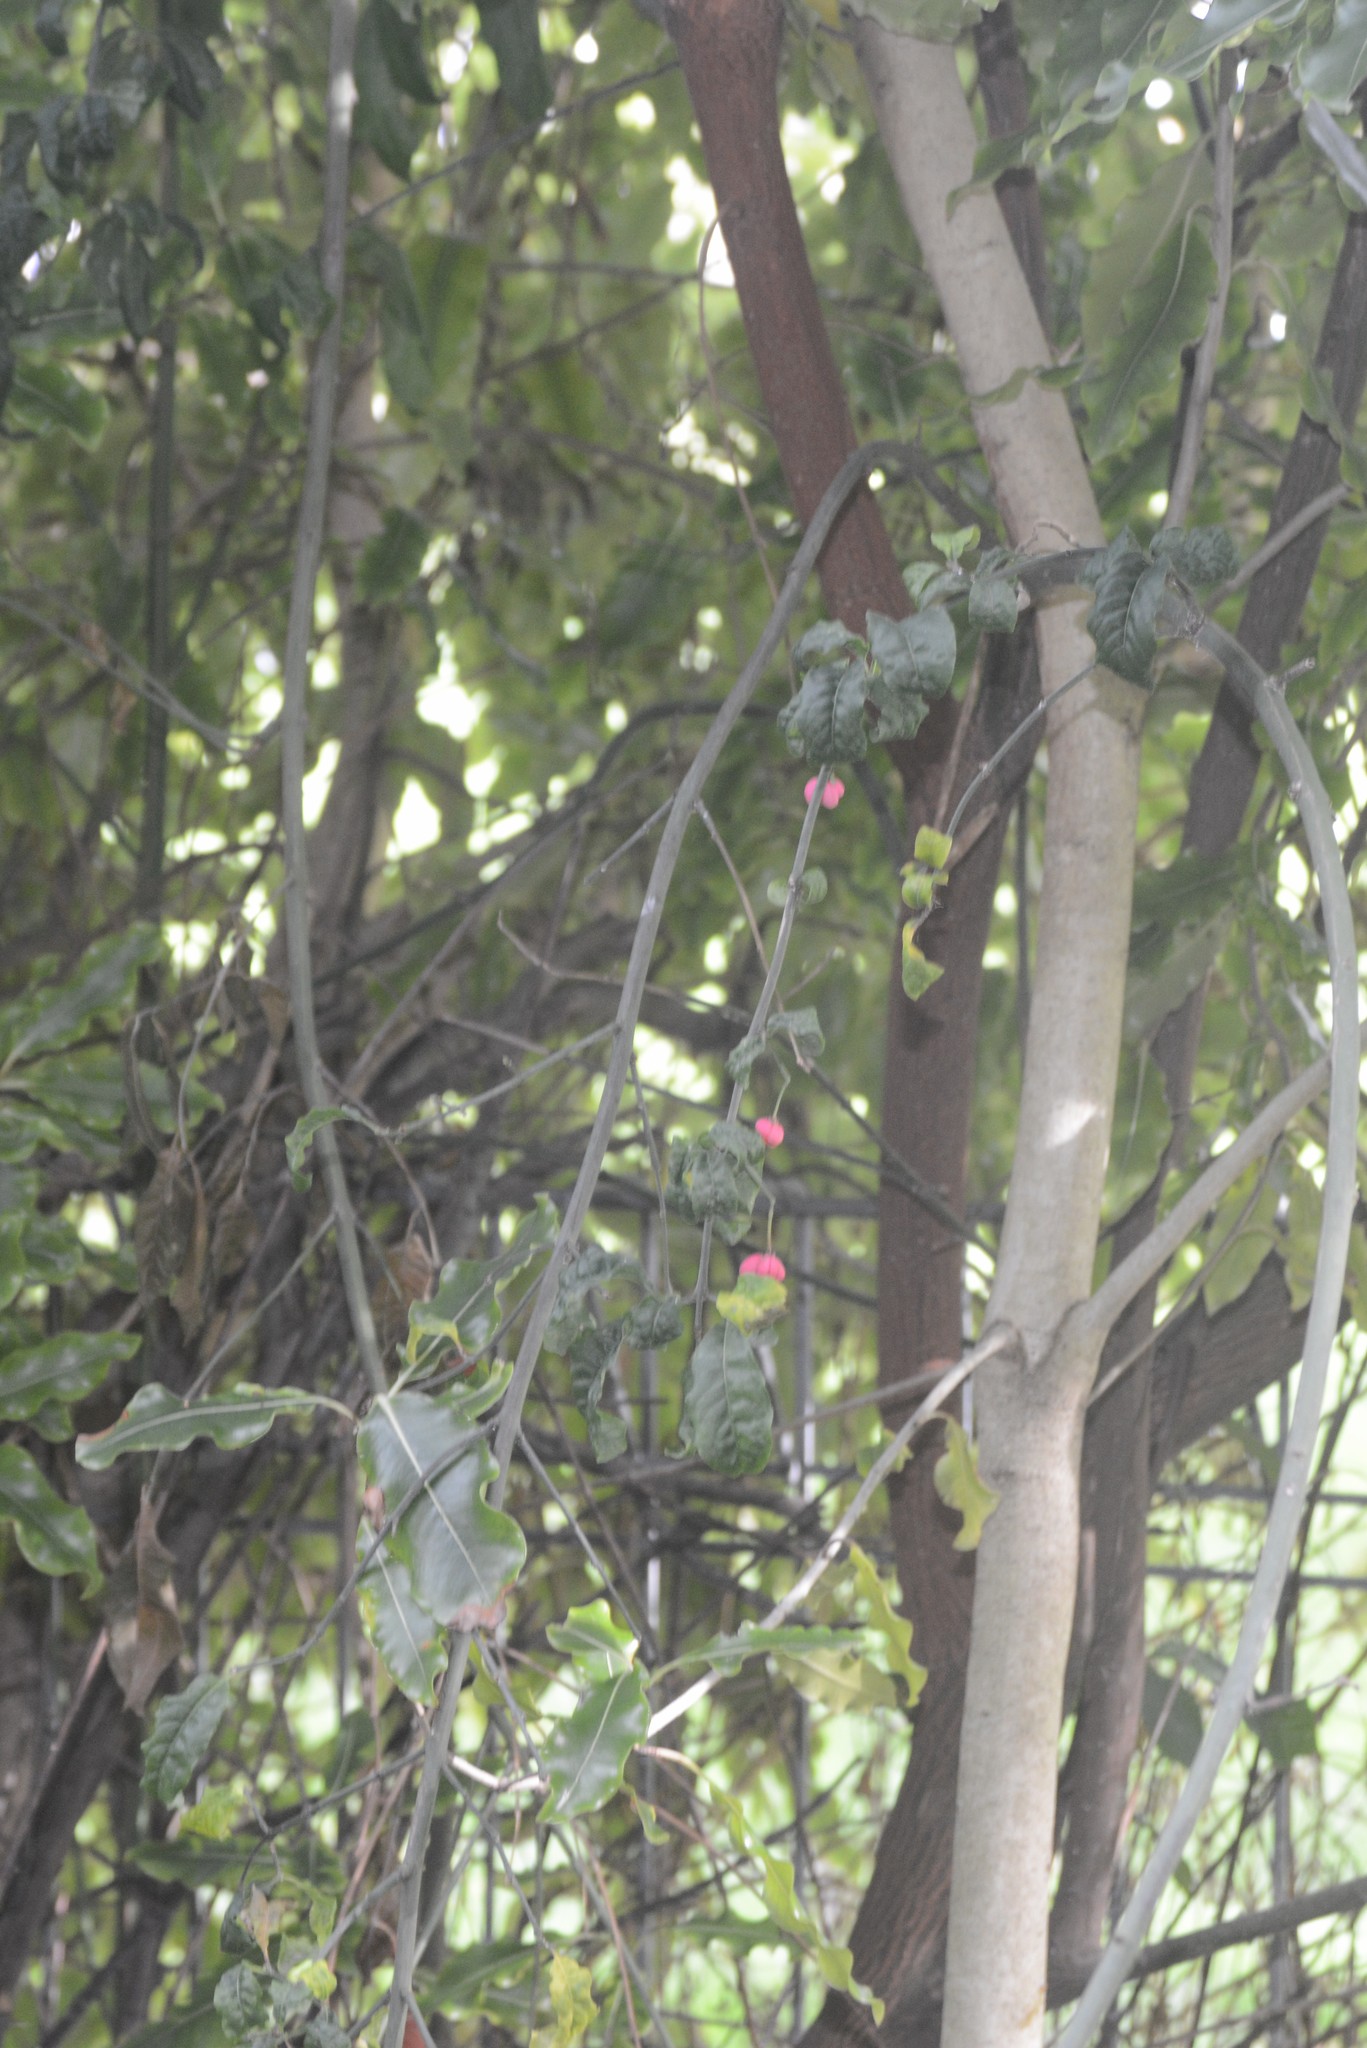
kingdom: Plantae
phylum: Tracheophyta
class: Magnoliopsida
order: Celastrales
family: Celastraceae
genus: Euonymus
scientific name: Euonymus europaeus
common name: Spindle
